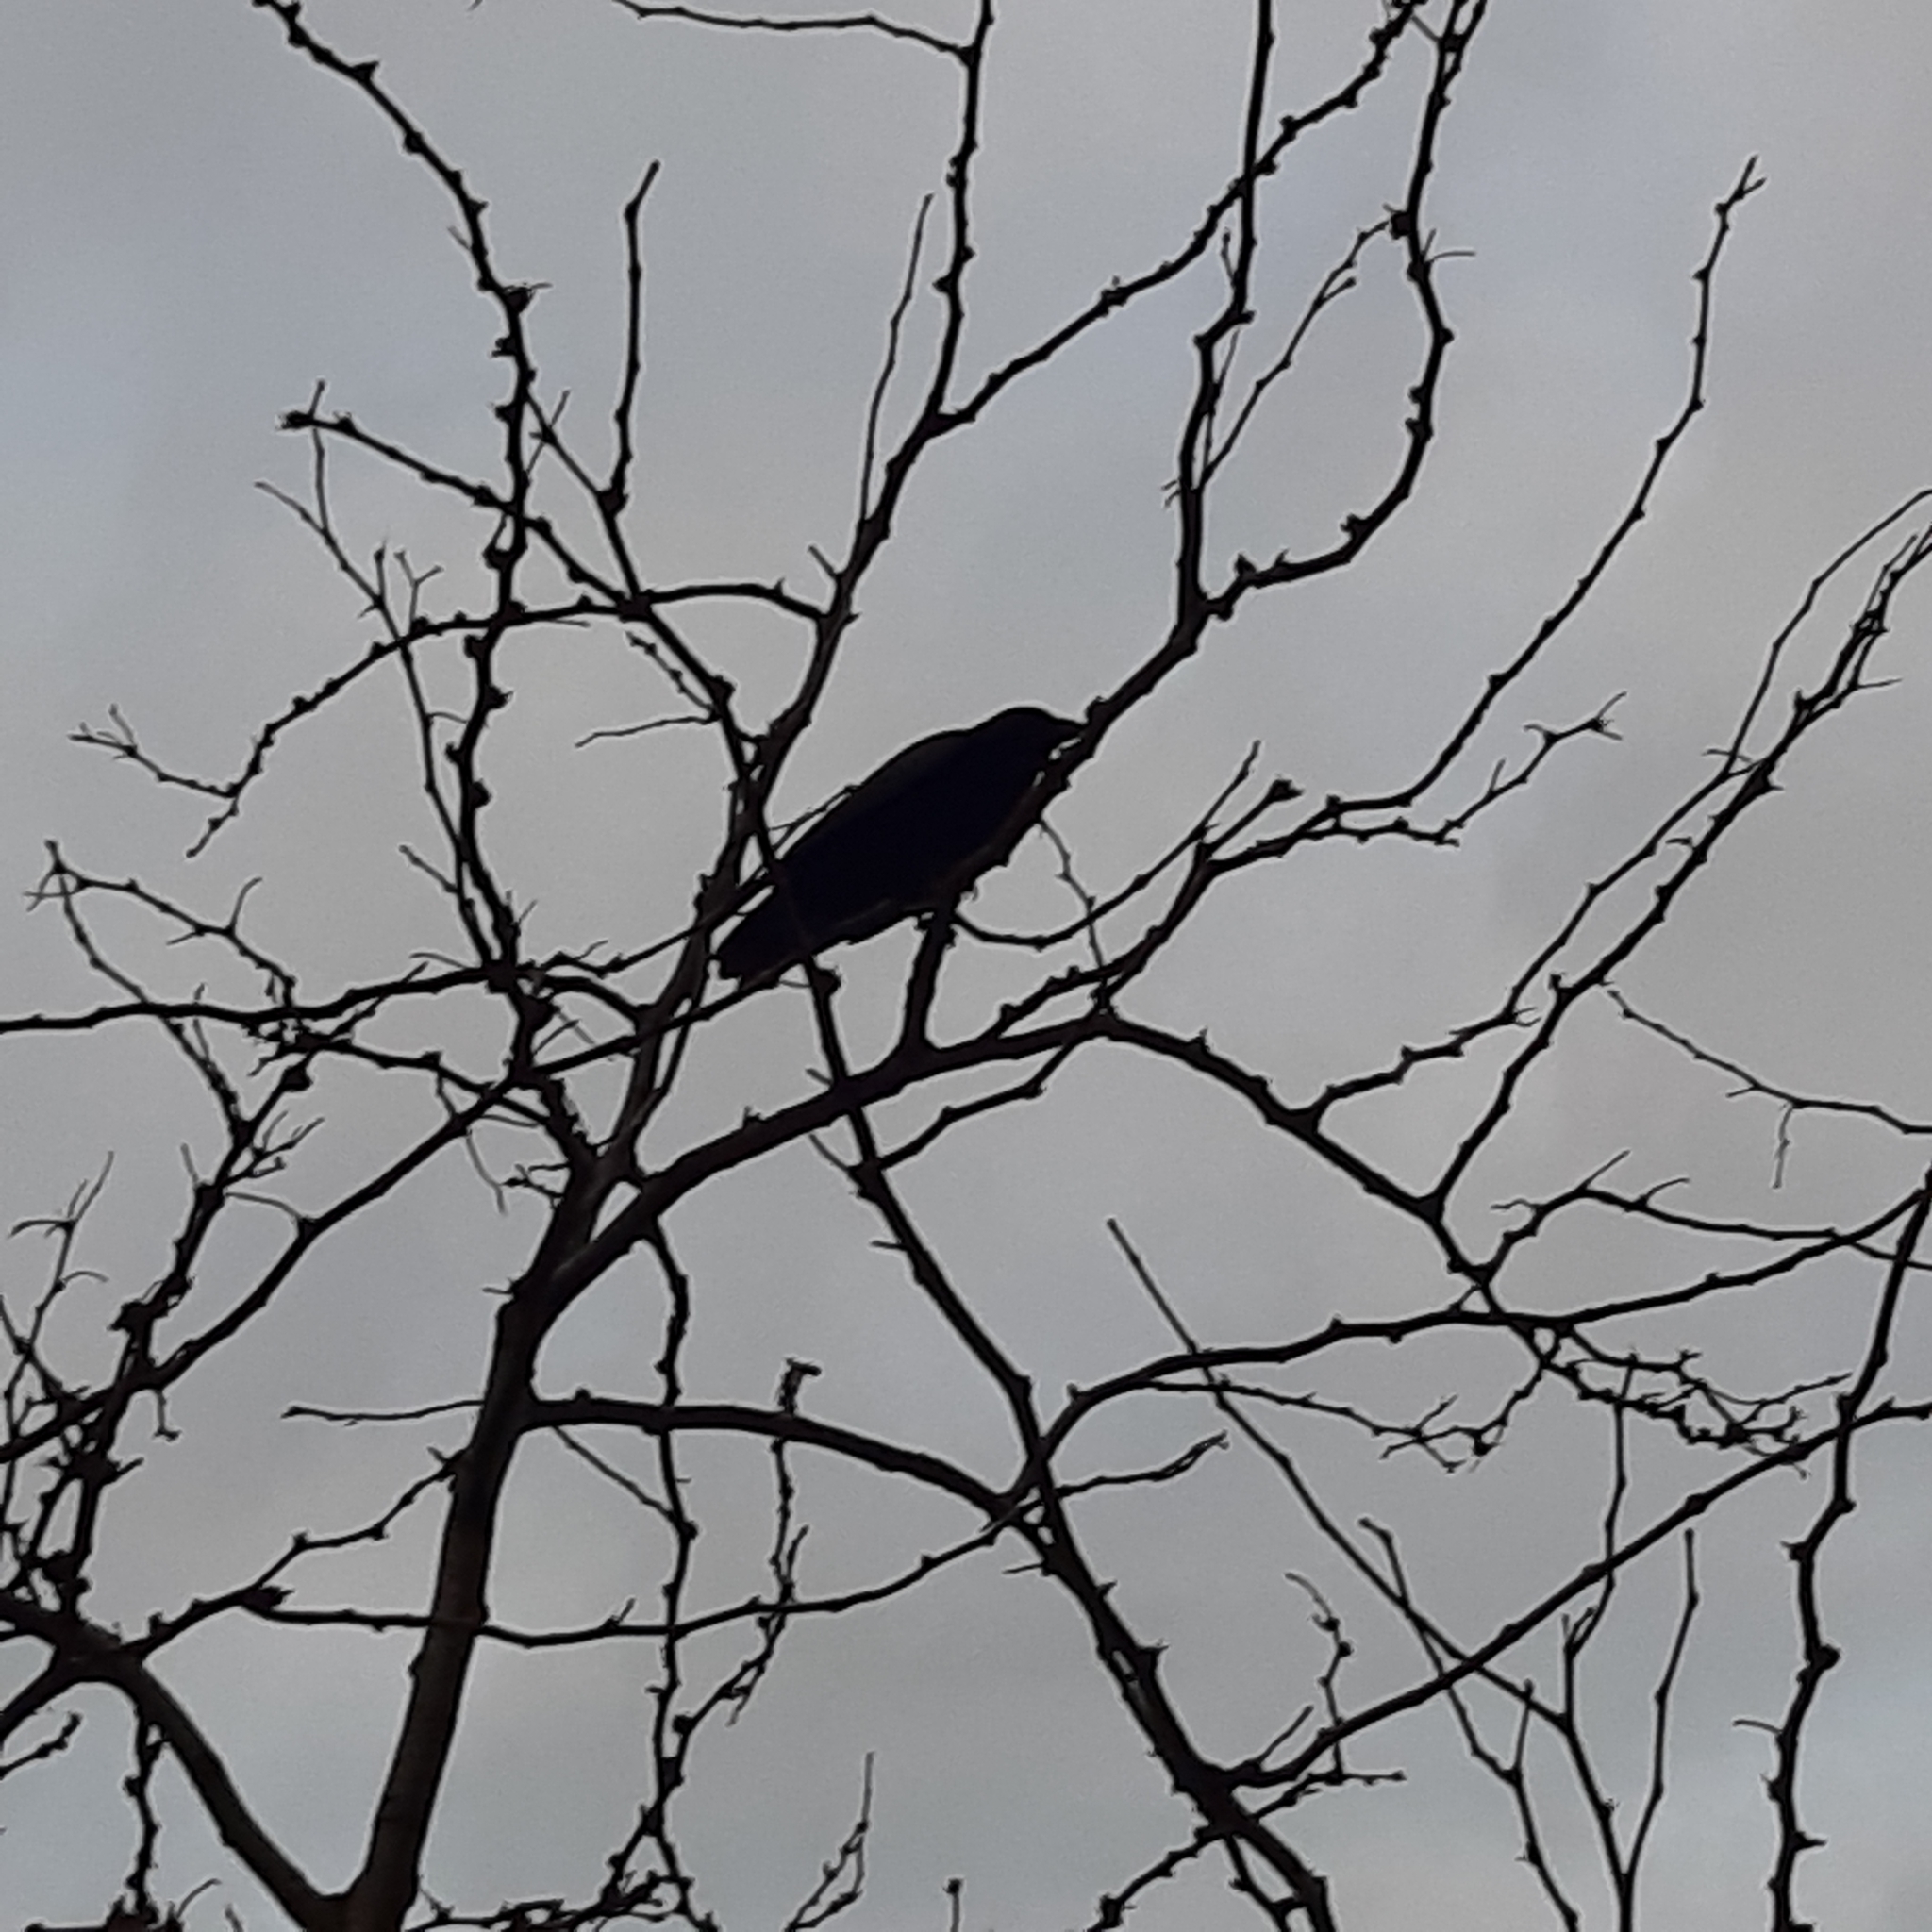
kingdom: Animalia
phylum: Chordata
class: Aves
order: Passeriformes
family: Corvidae
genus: Corvus
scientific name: Corvus corone
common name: Carrion crow
